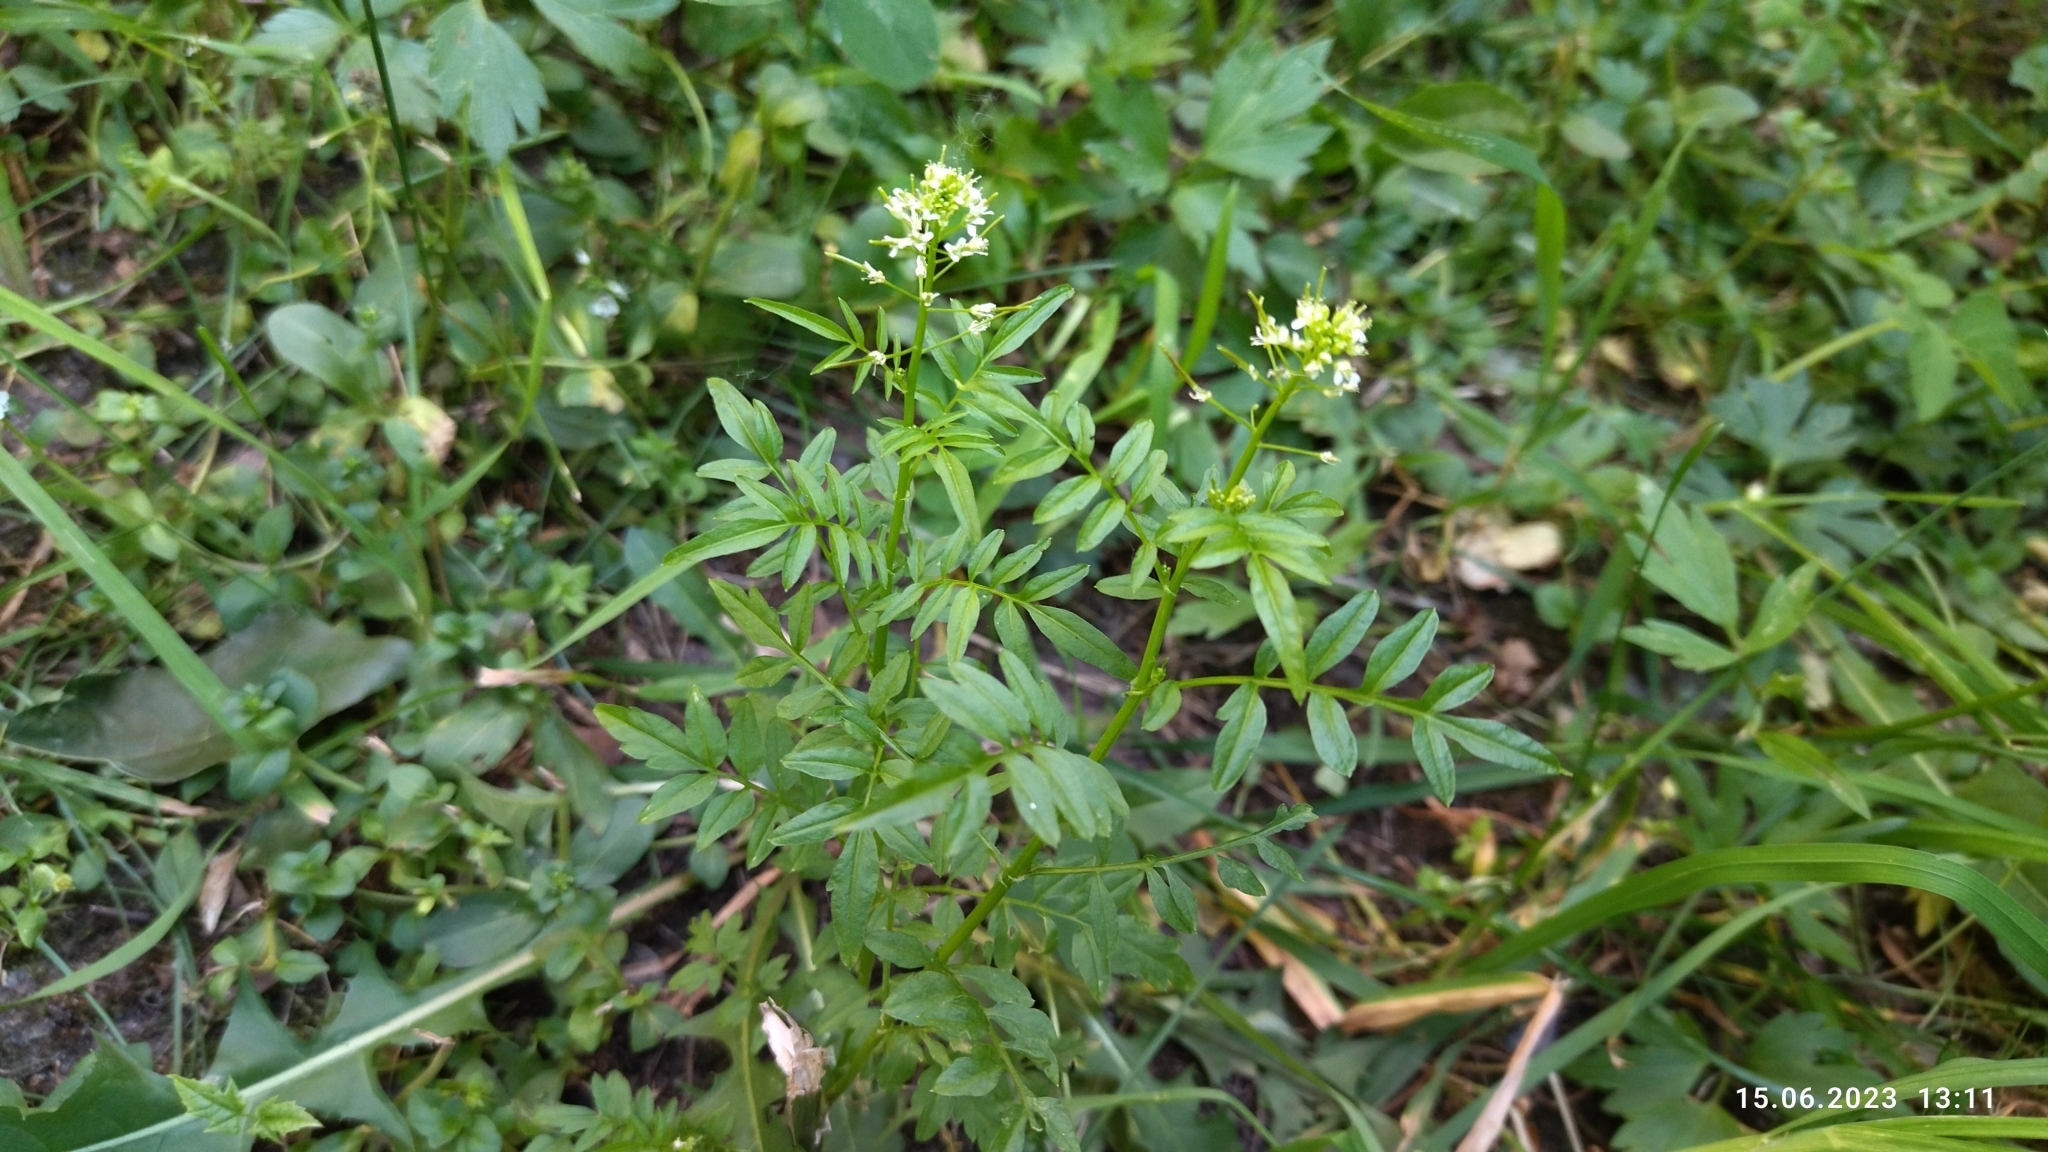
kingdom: Plantae
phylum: Tracheophyta
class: Magnoliopsida
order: Brassicales
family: Brassicaceae
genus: Cardamine
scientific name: Cardamine impatiens
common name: Narrow-leaved bitter-cress
